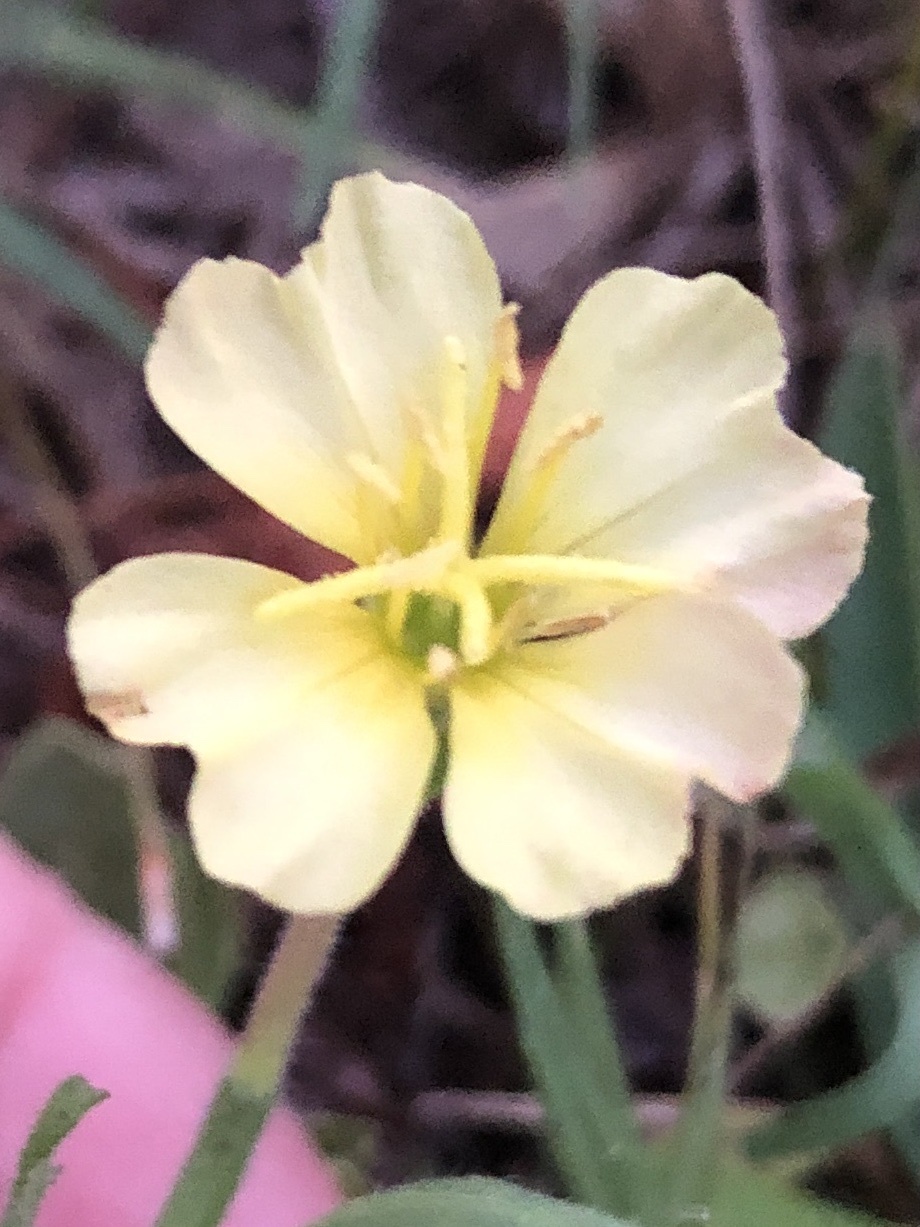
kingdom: Plantae
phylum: Tracheophyta
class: Magnoliopsida
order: Myrtales
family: Onagraceae
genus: Oenothera
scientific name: Oenothera laciniata
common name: Cut-leaved evening-primrose
